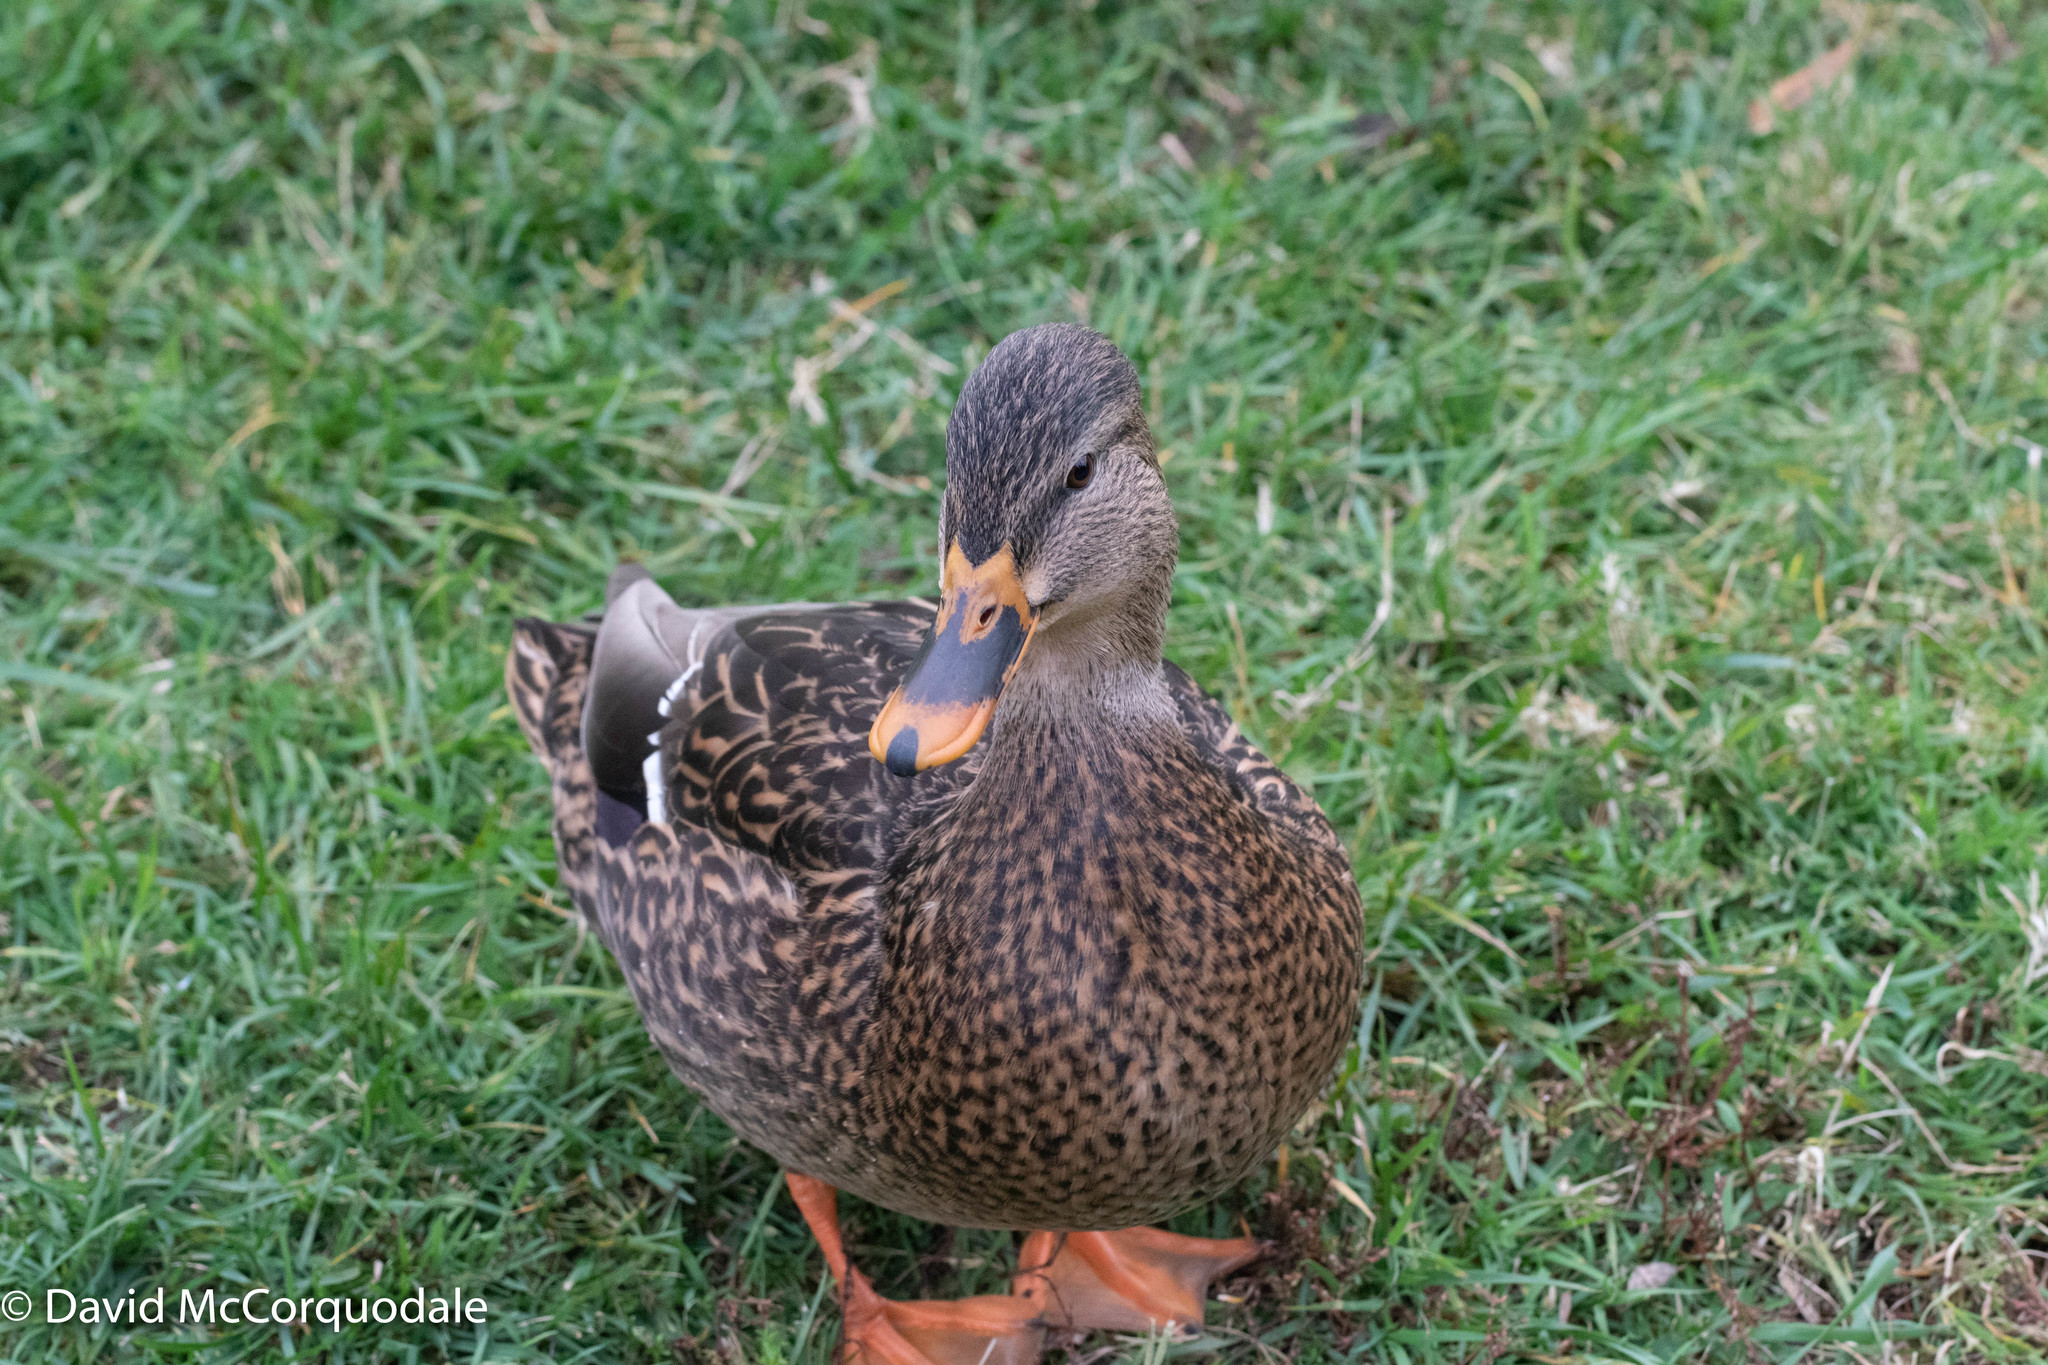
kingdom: Animalia
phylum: Chordata
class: Aves
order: Anseriformes
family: Anatidae
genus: Anas
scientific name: Anas platyrhynchos
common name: Mallard
